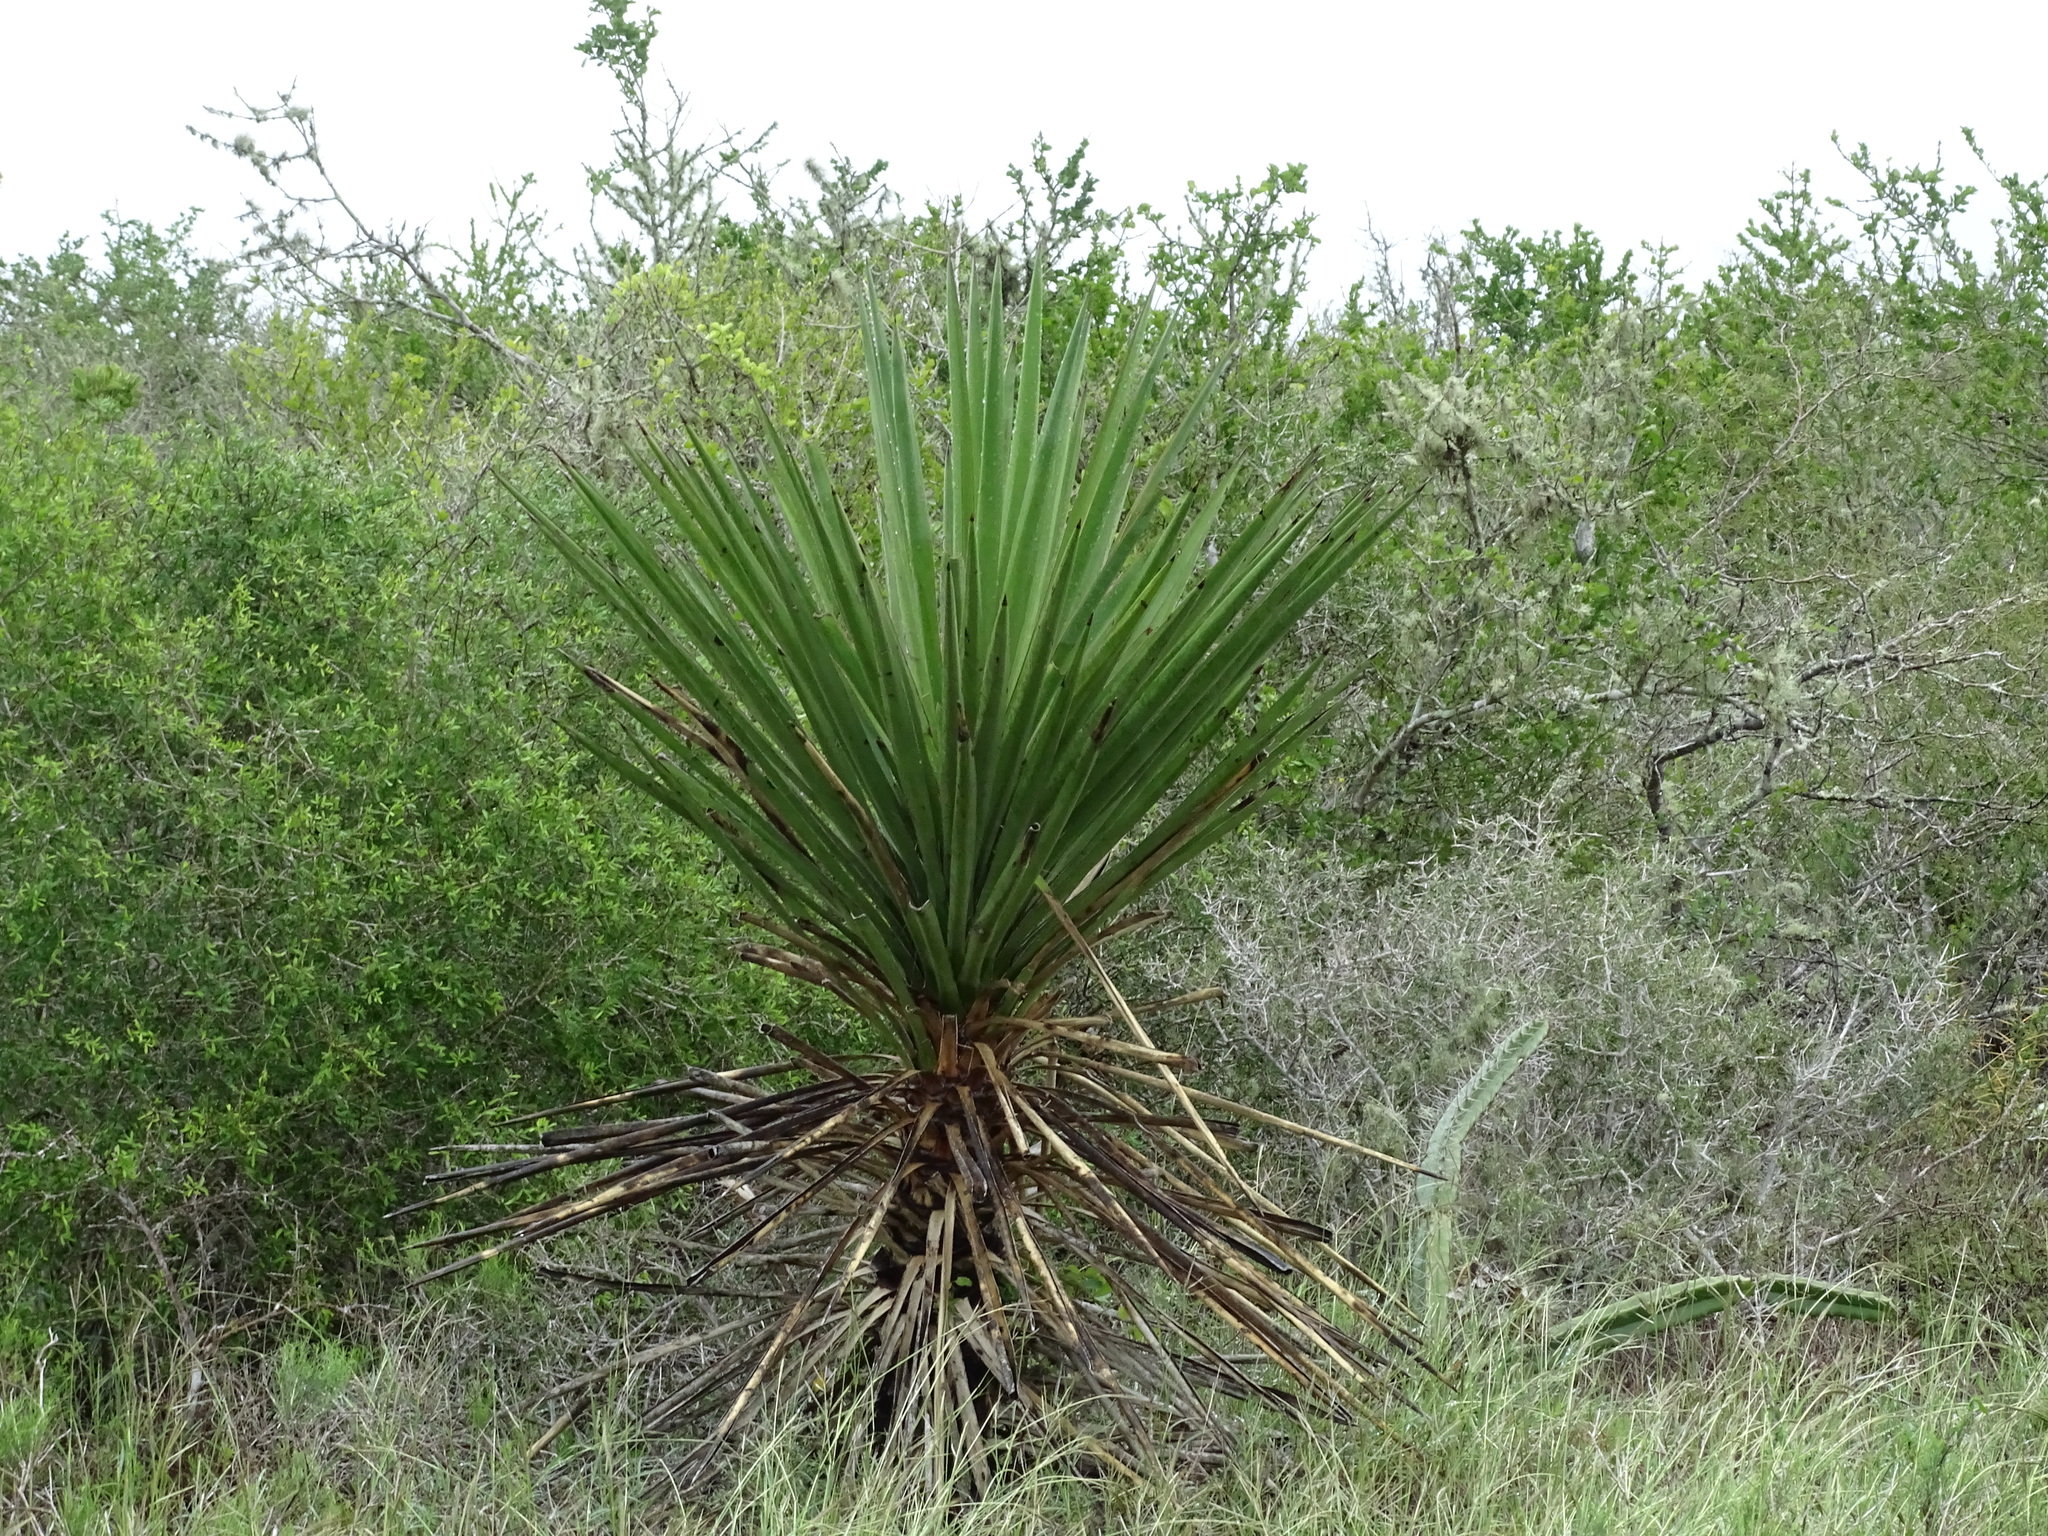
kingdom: Plantae
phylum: Tracheophyta
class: Liliopsida
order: Asparagales
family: Asparagaceae
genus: Yucca
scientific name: Yucca treculiana
